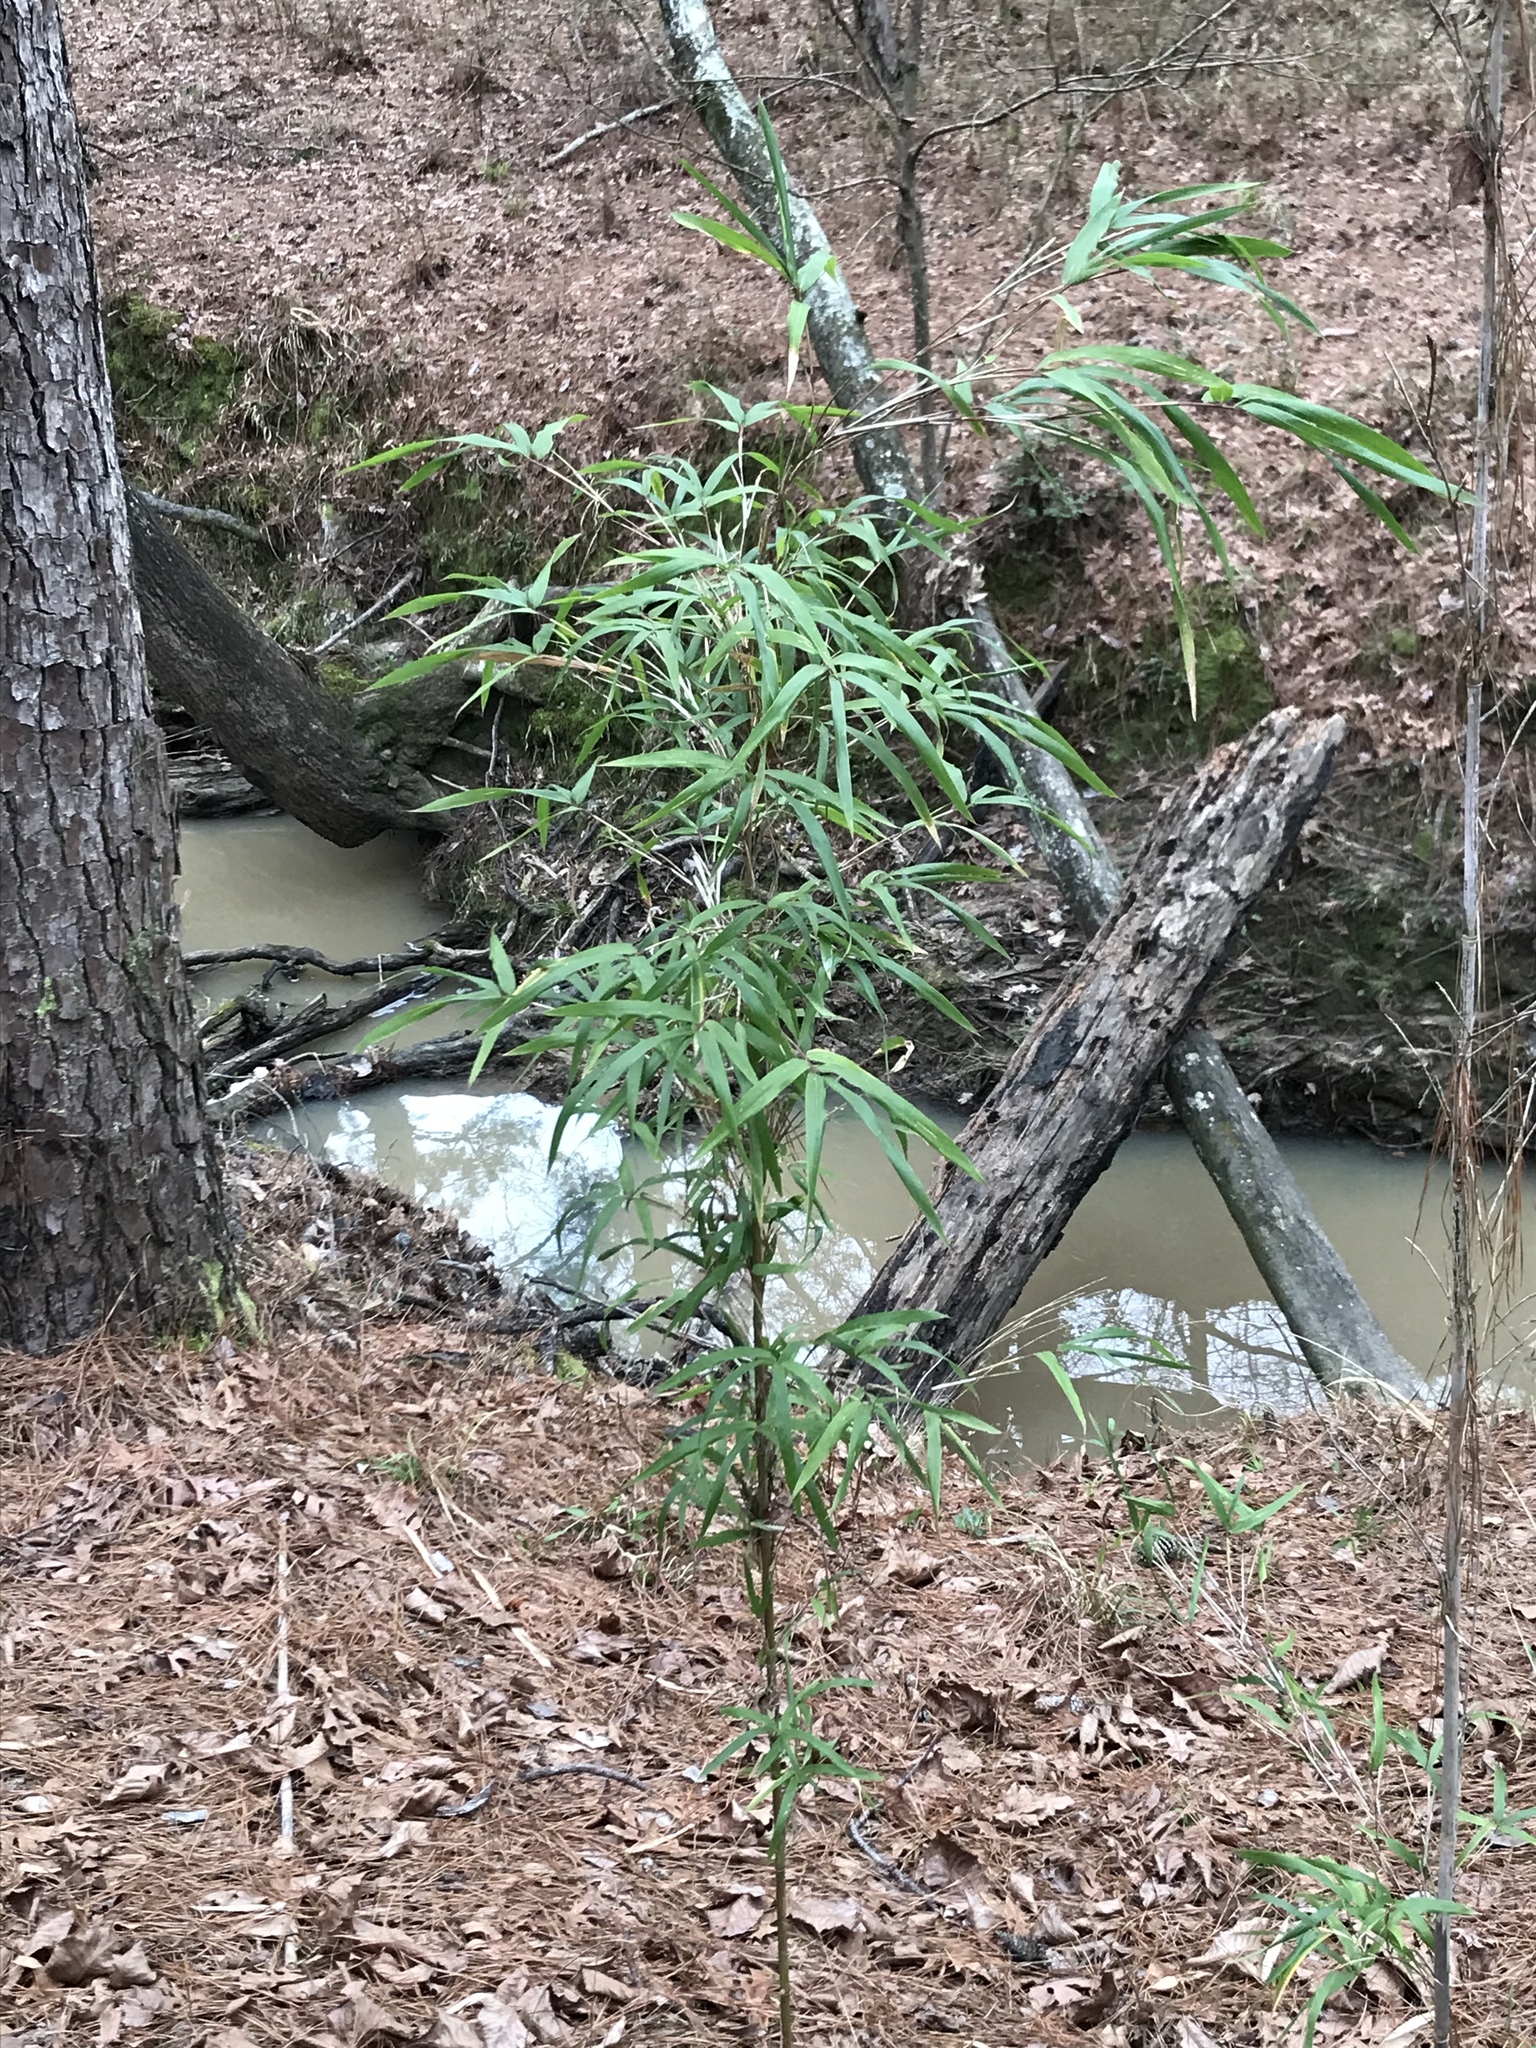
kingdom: Plantae
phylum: Tracheophyta
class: Liliopsida
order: Poales
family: Poaceae
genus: Arundinaria
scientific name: Arundinaria gigantea
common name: Giant cane
